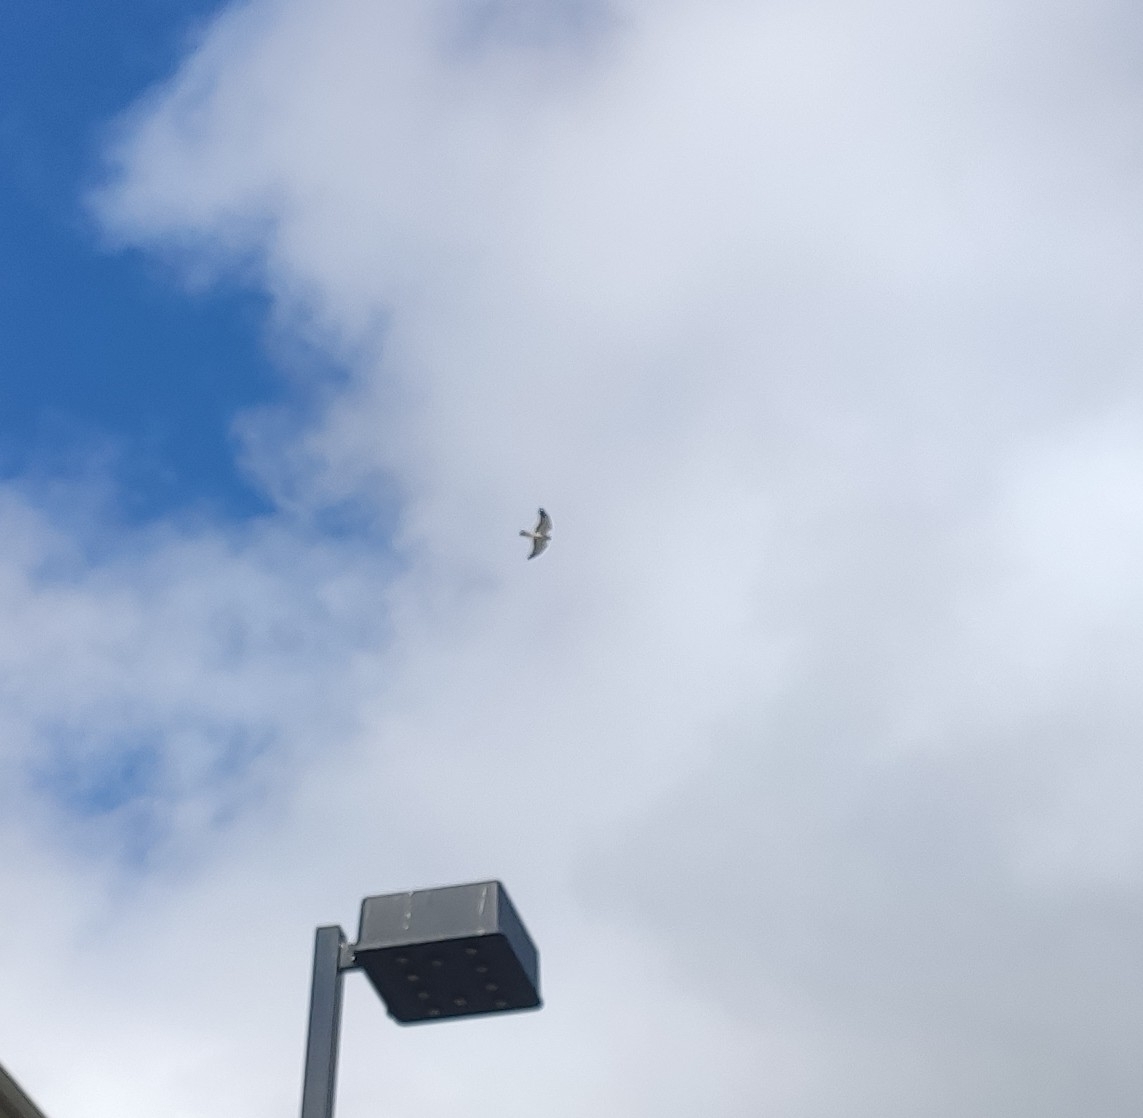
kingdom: Animalia
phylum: Chordata
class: Aves
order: Accipitriformes
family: Accipitridae
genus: Circus
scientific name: Circus cyaneus
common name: Hen harrier
